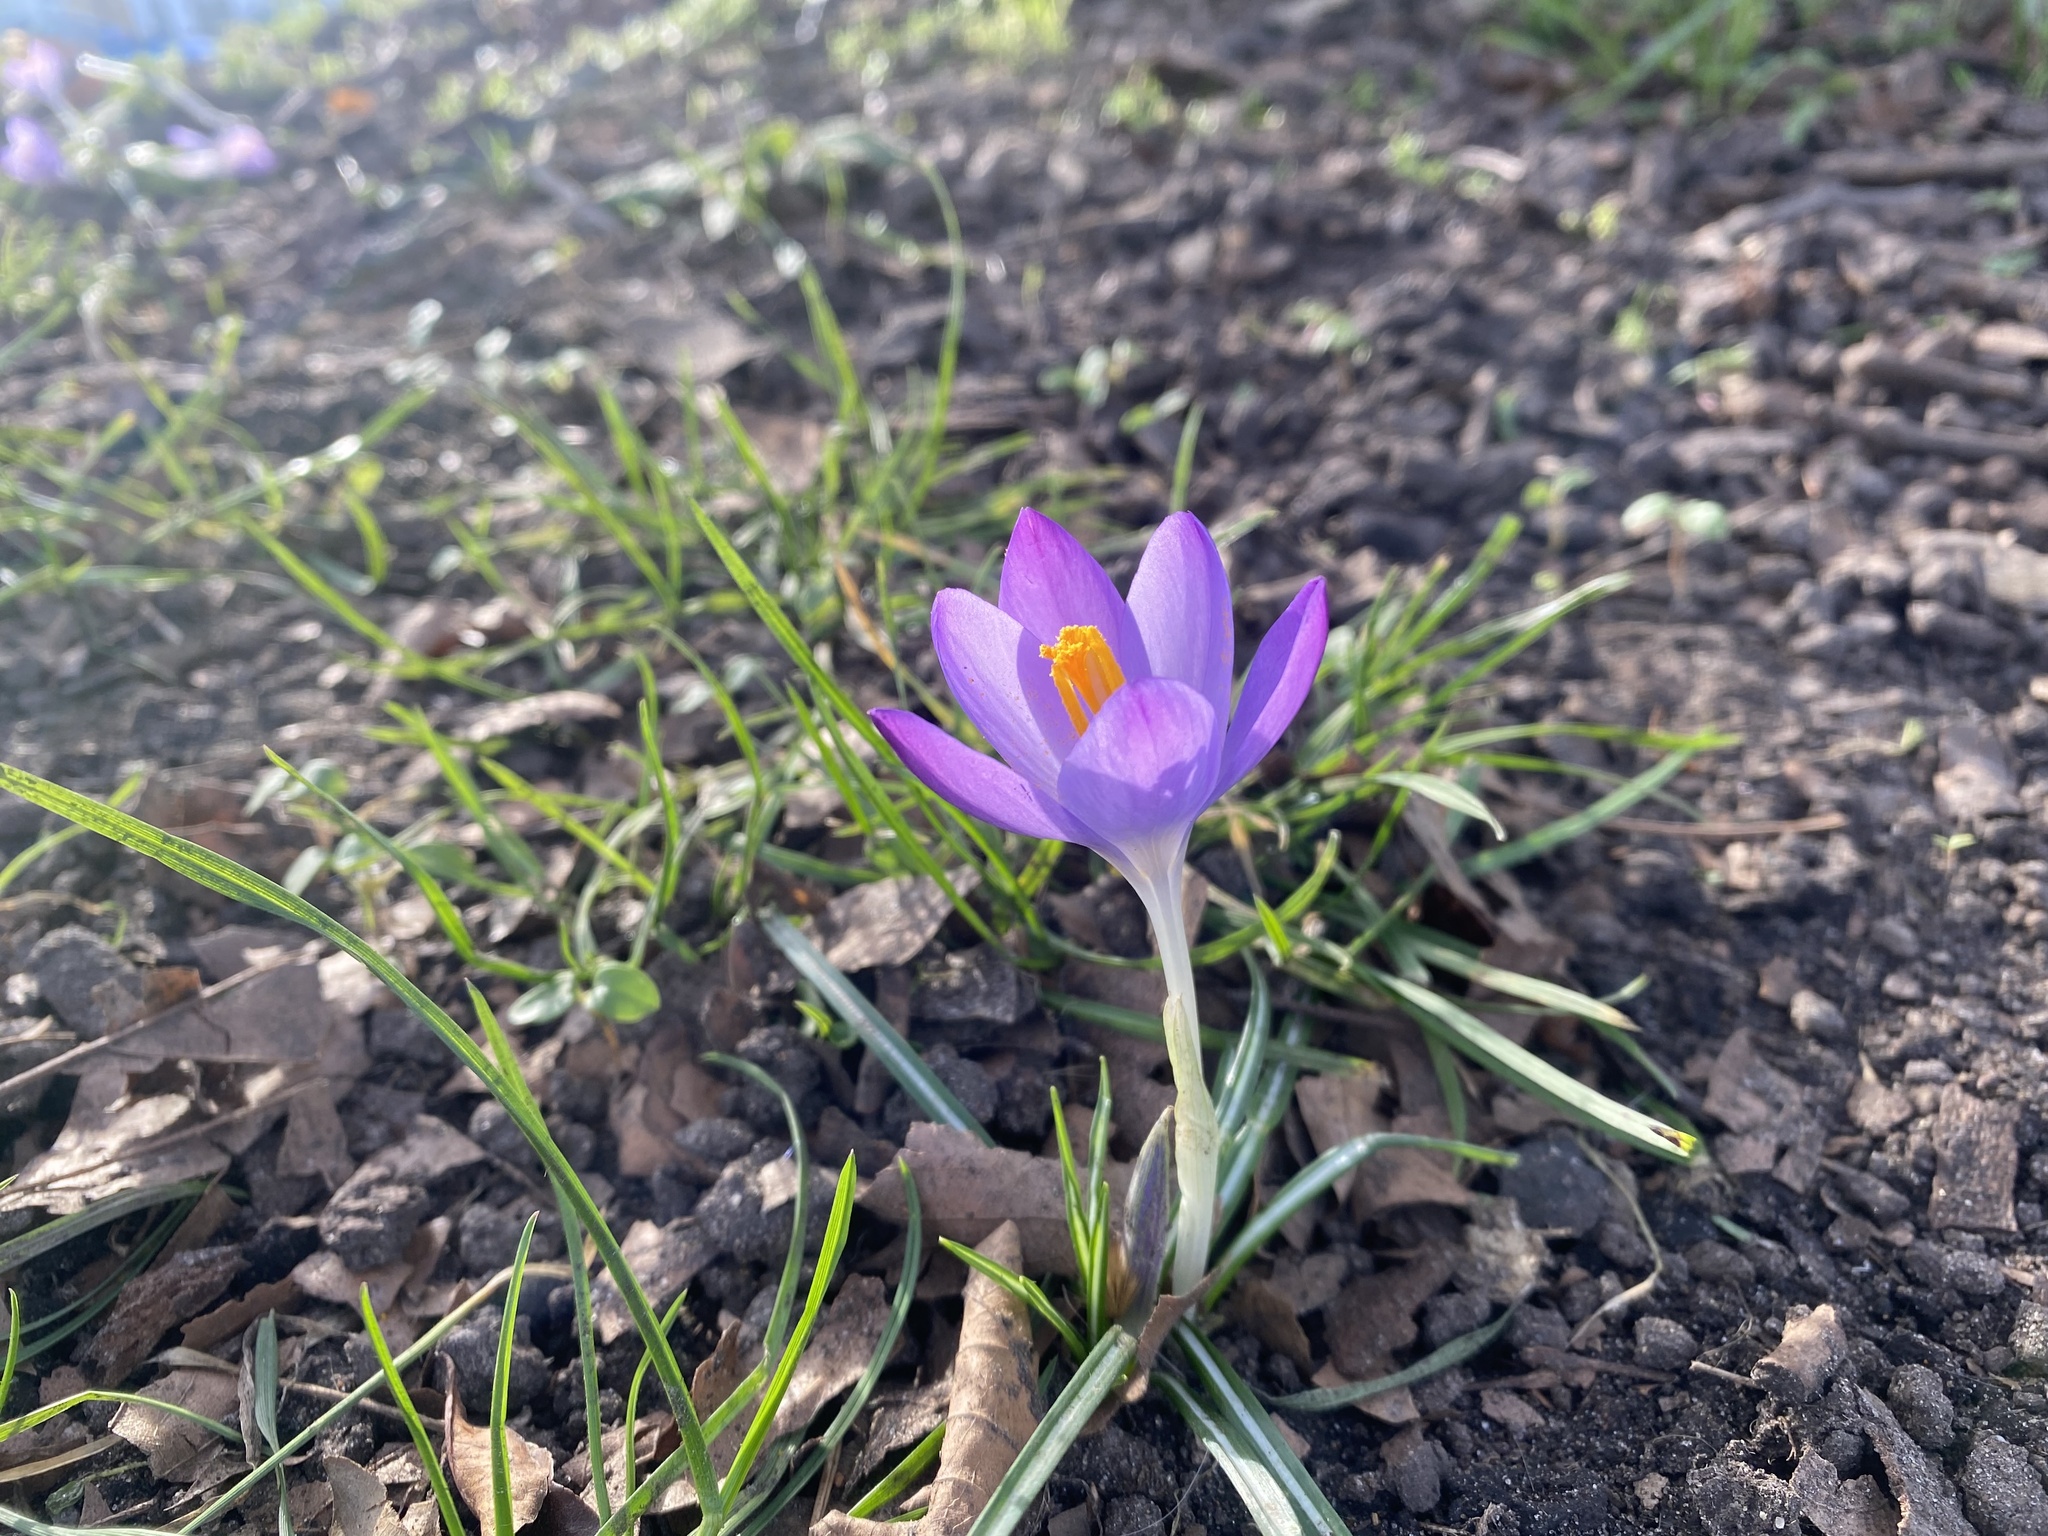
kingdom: Plantae
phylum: Tracheophyta
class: Liliopsida
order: Asparagales
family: Iridaceae
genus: Crocus
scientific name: Crocus tommasinianus
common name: Early crocus
